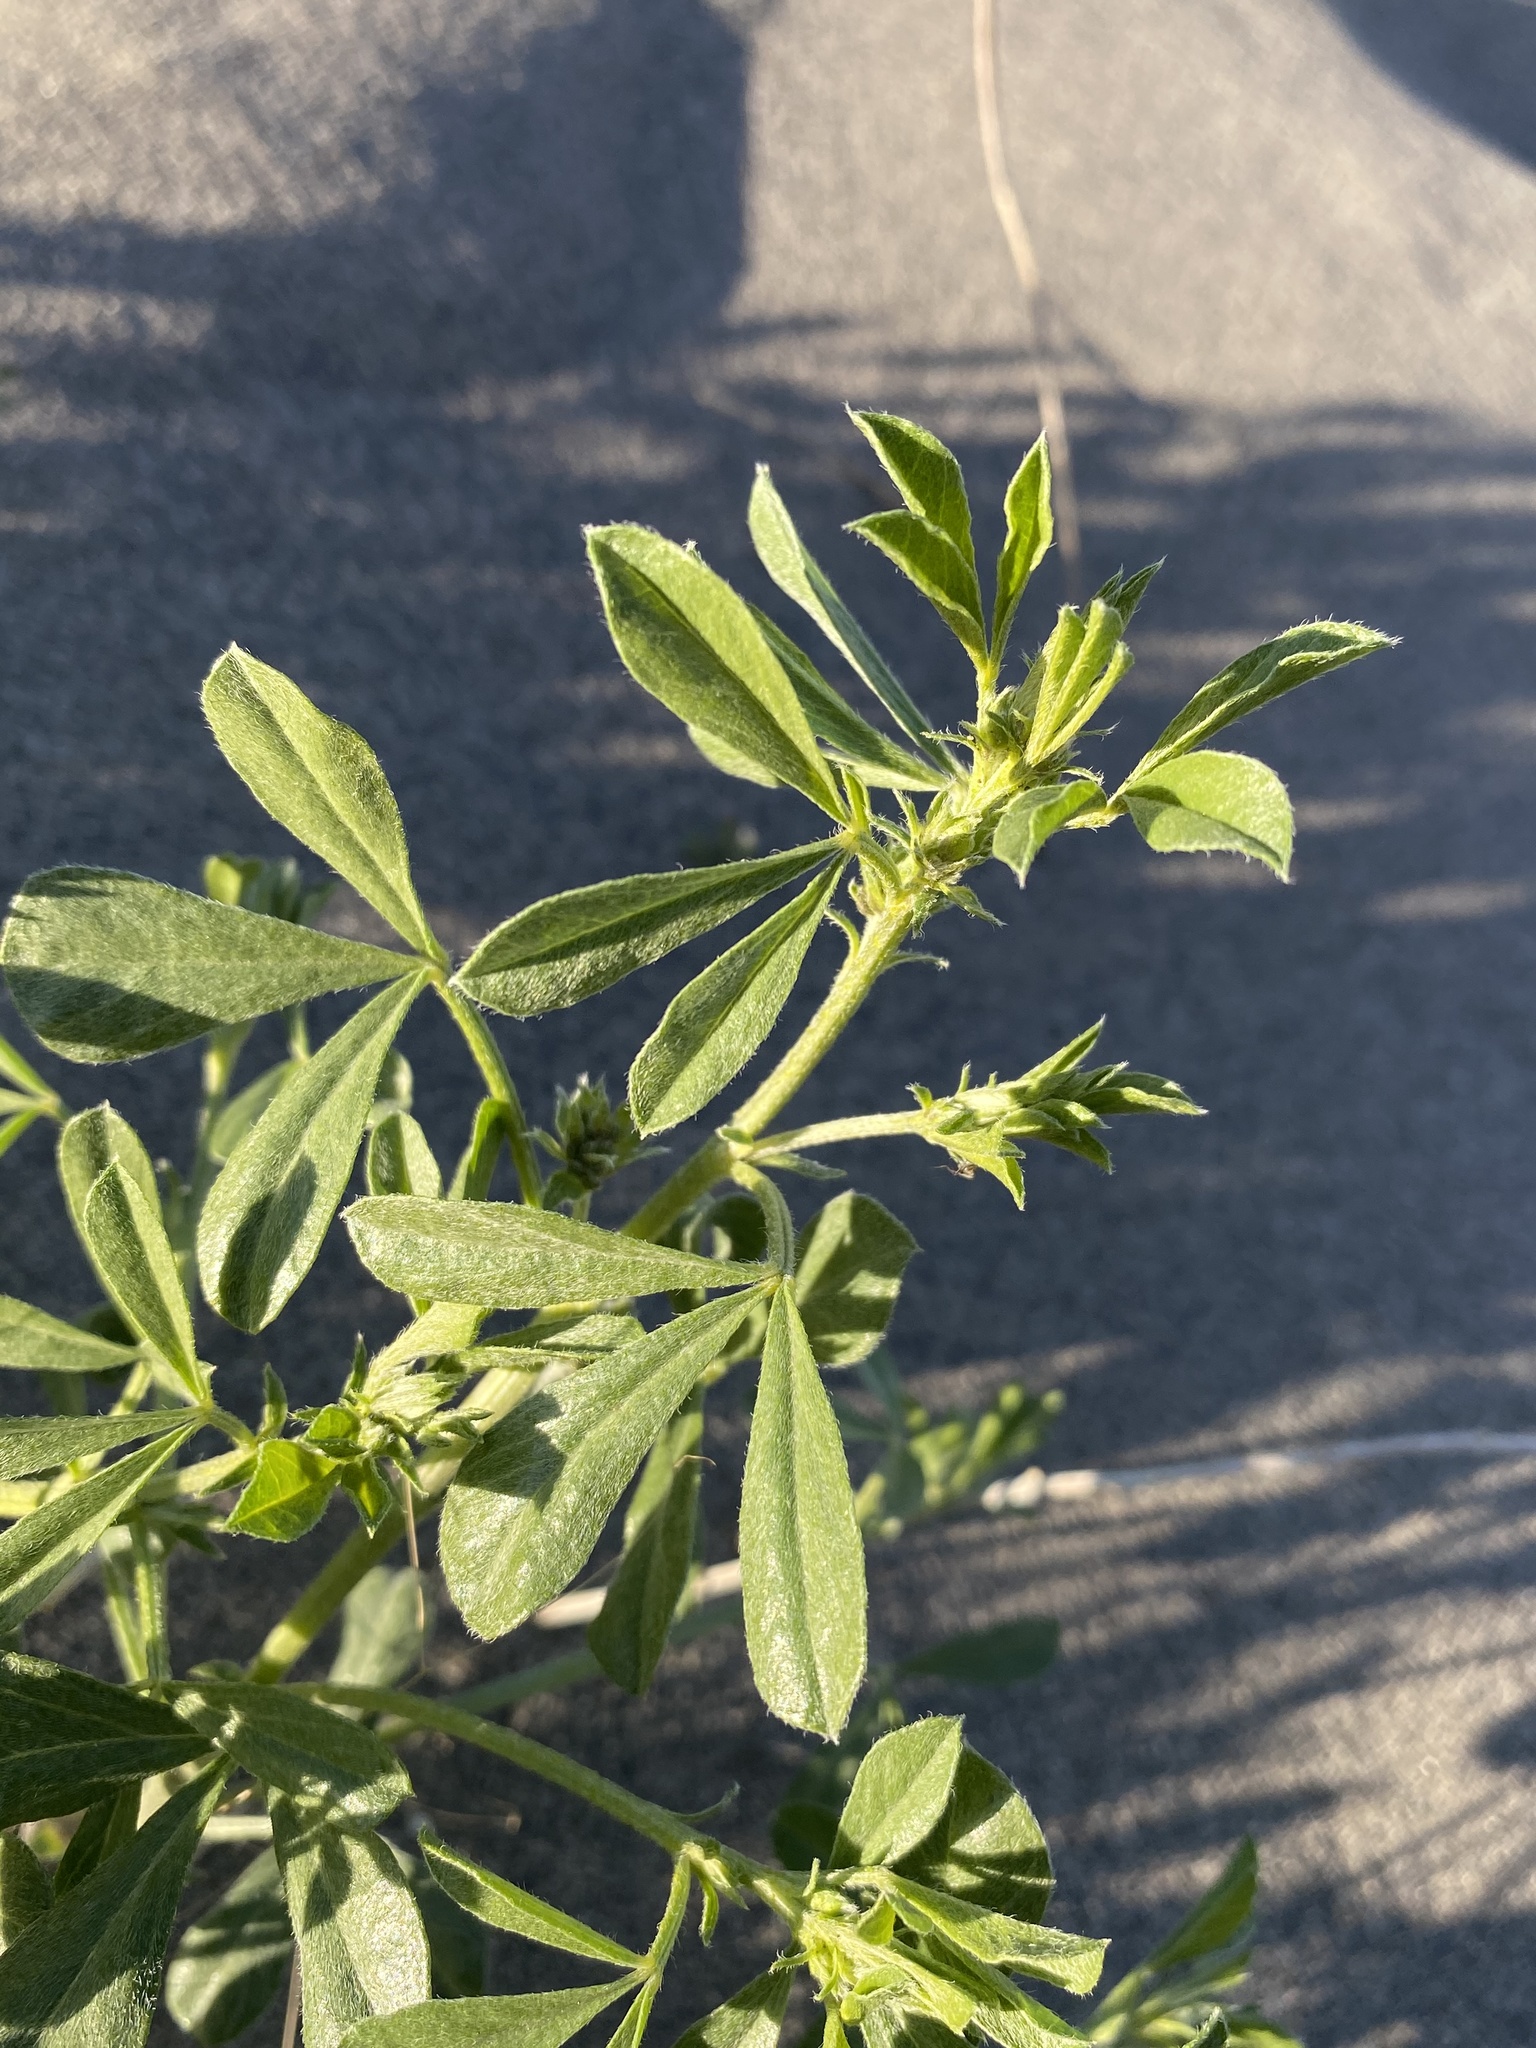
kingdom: Plantae
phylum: Tracheophyta
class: Magnoliopsida
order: Fabales
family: Fabaceae
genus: Ladeania
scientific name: Ladeania lanceolata
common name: Dune scurf-pea
